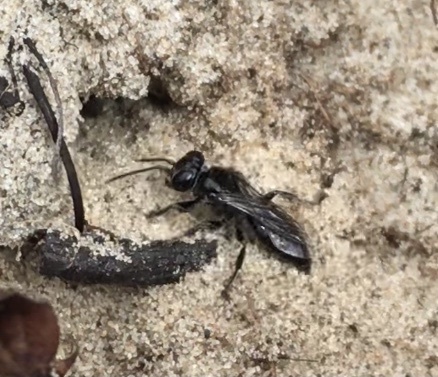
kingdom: Animalia
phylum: Arthropoda
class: Insecta
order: Hymenoptera
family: Crabronidae
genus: Tachysphex
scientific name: Tachysphex nigerrimus
